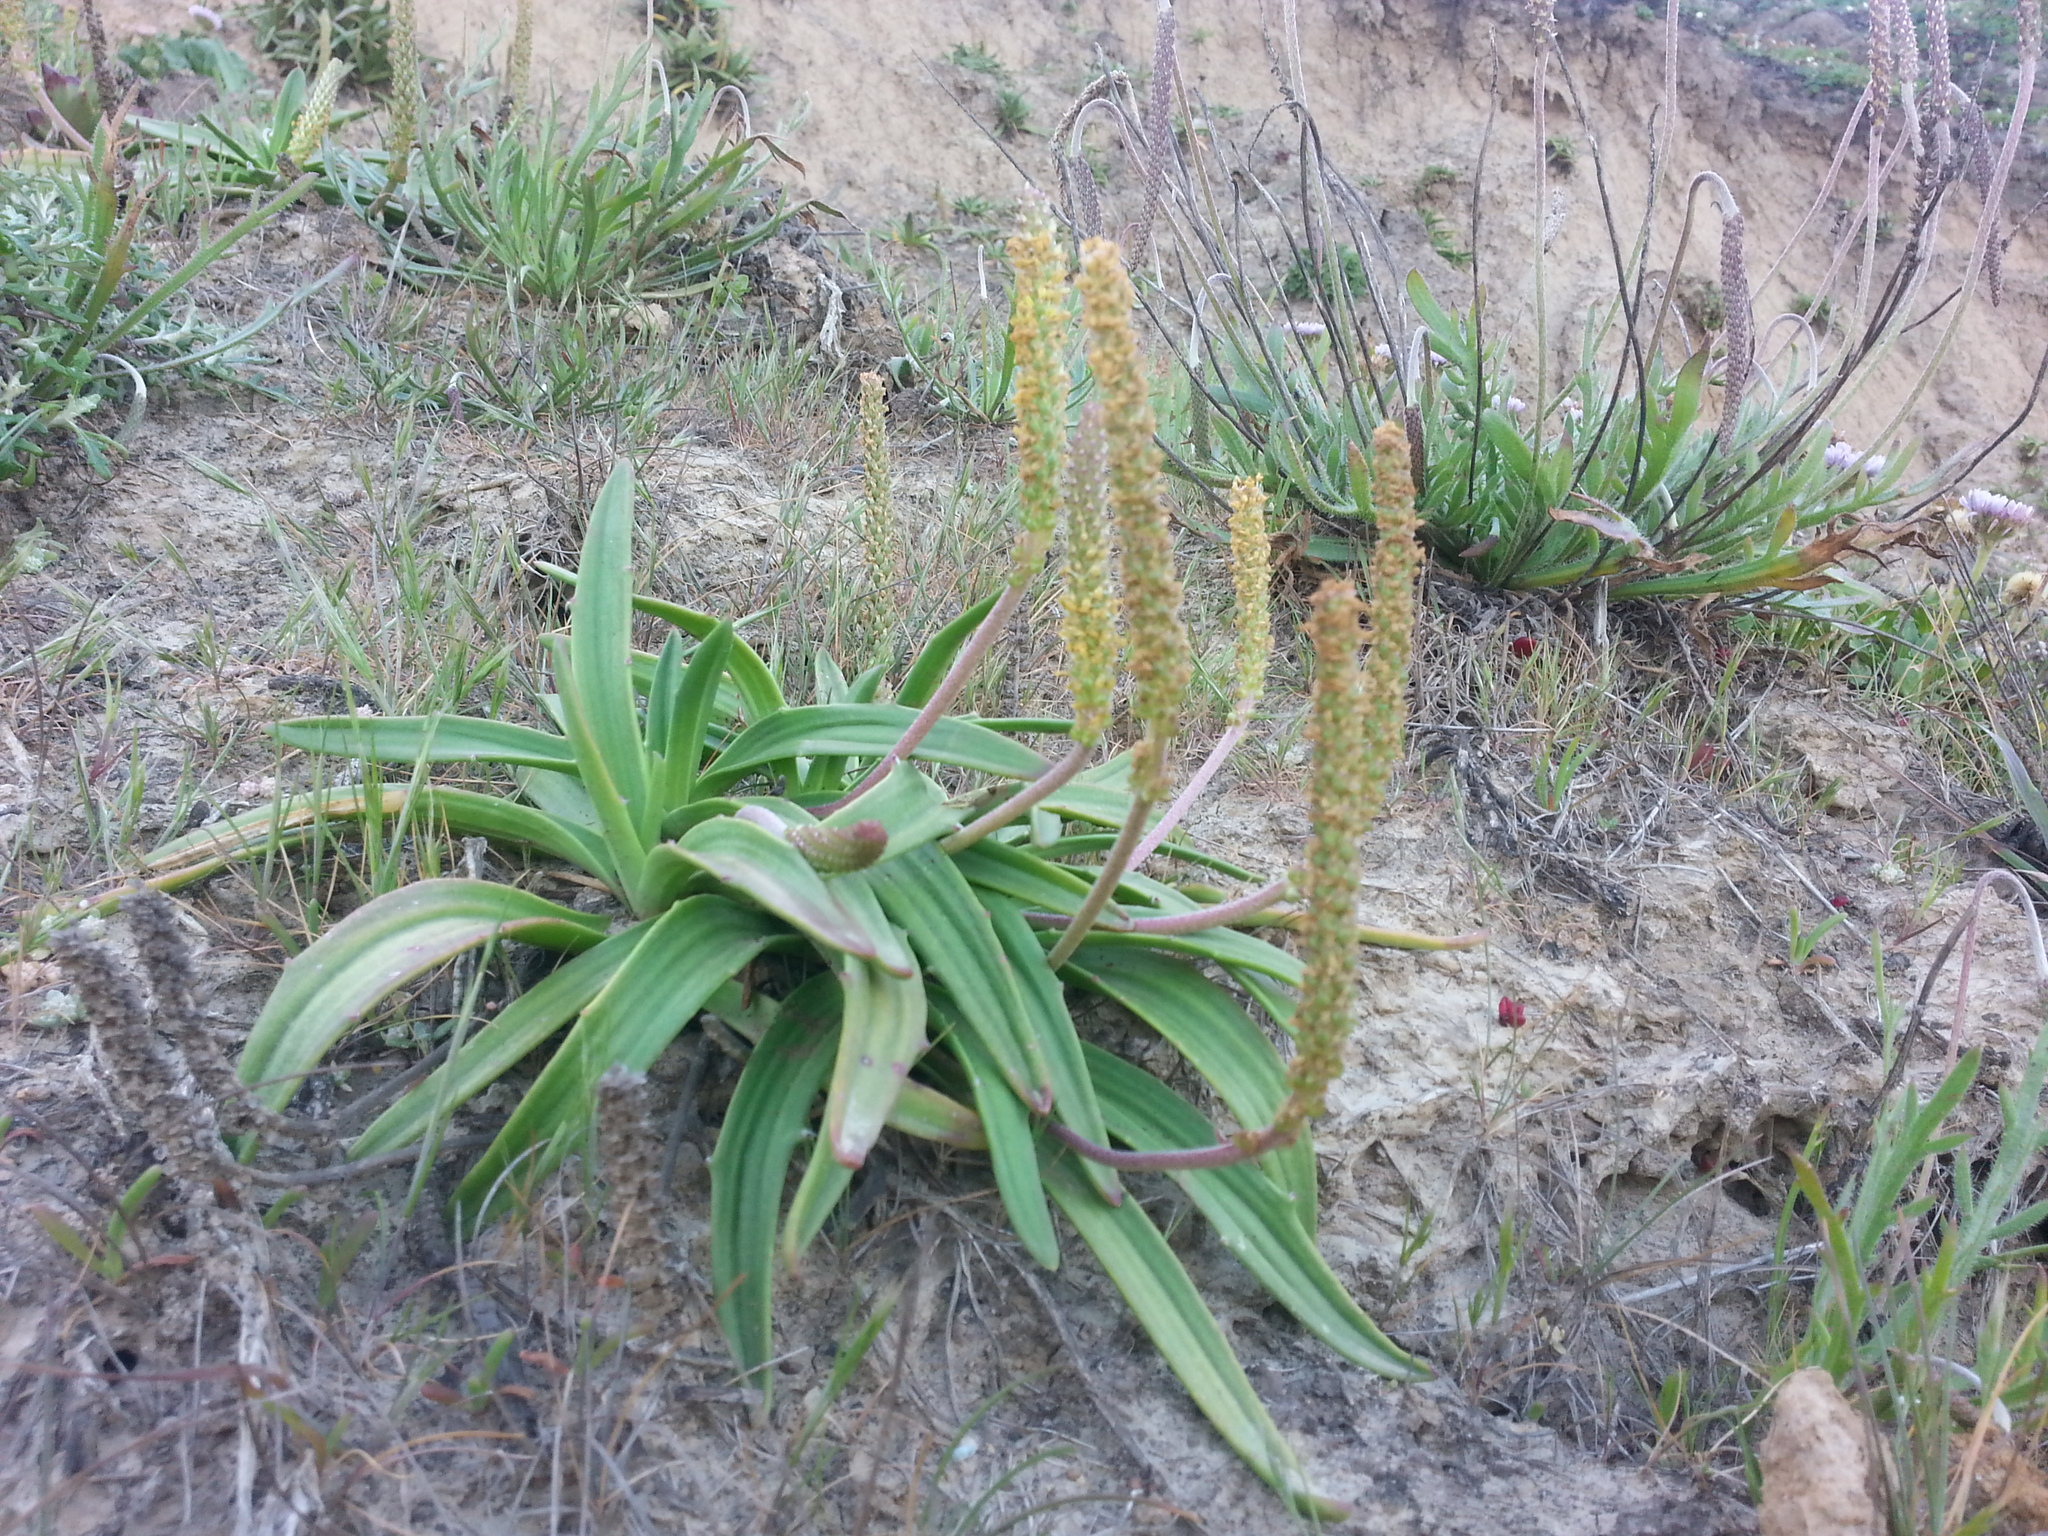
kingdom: Plantae
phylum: Tracheophyta
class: Magnoliopsida
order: Lamiales
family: Plantaginaceae
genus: Plantago
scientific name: Plantago maritima
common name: Sea plantain
